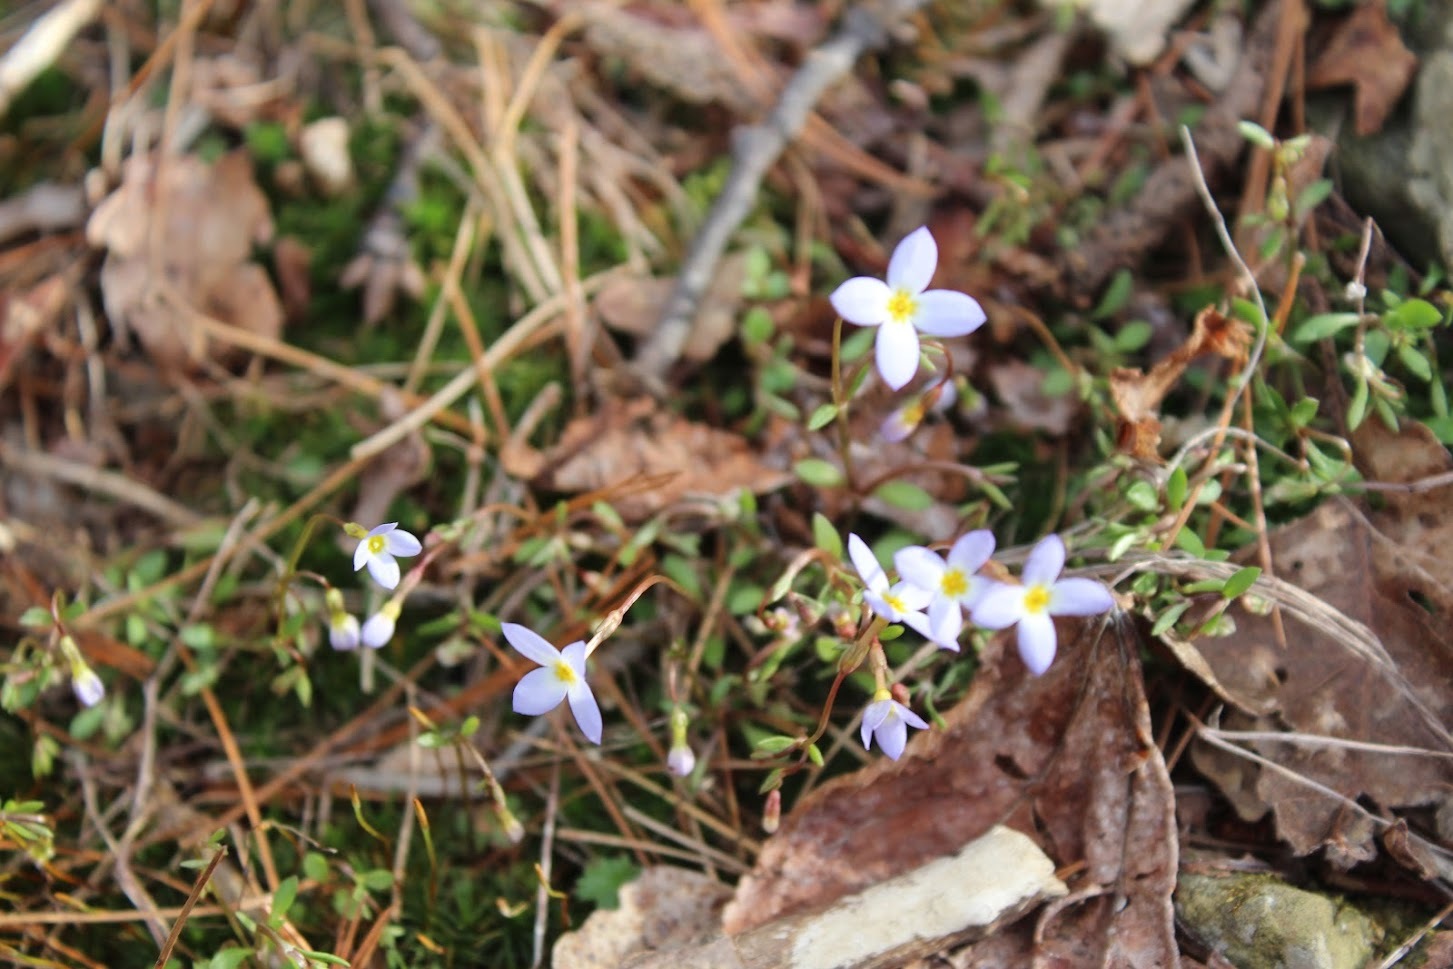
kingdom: Plantae
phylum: Tracheophyta
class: Magnoliopsida
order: Gentianales
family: Rubiaceae
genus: Houstonia
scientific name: Houstonia caerulea
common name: Bluets
